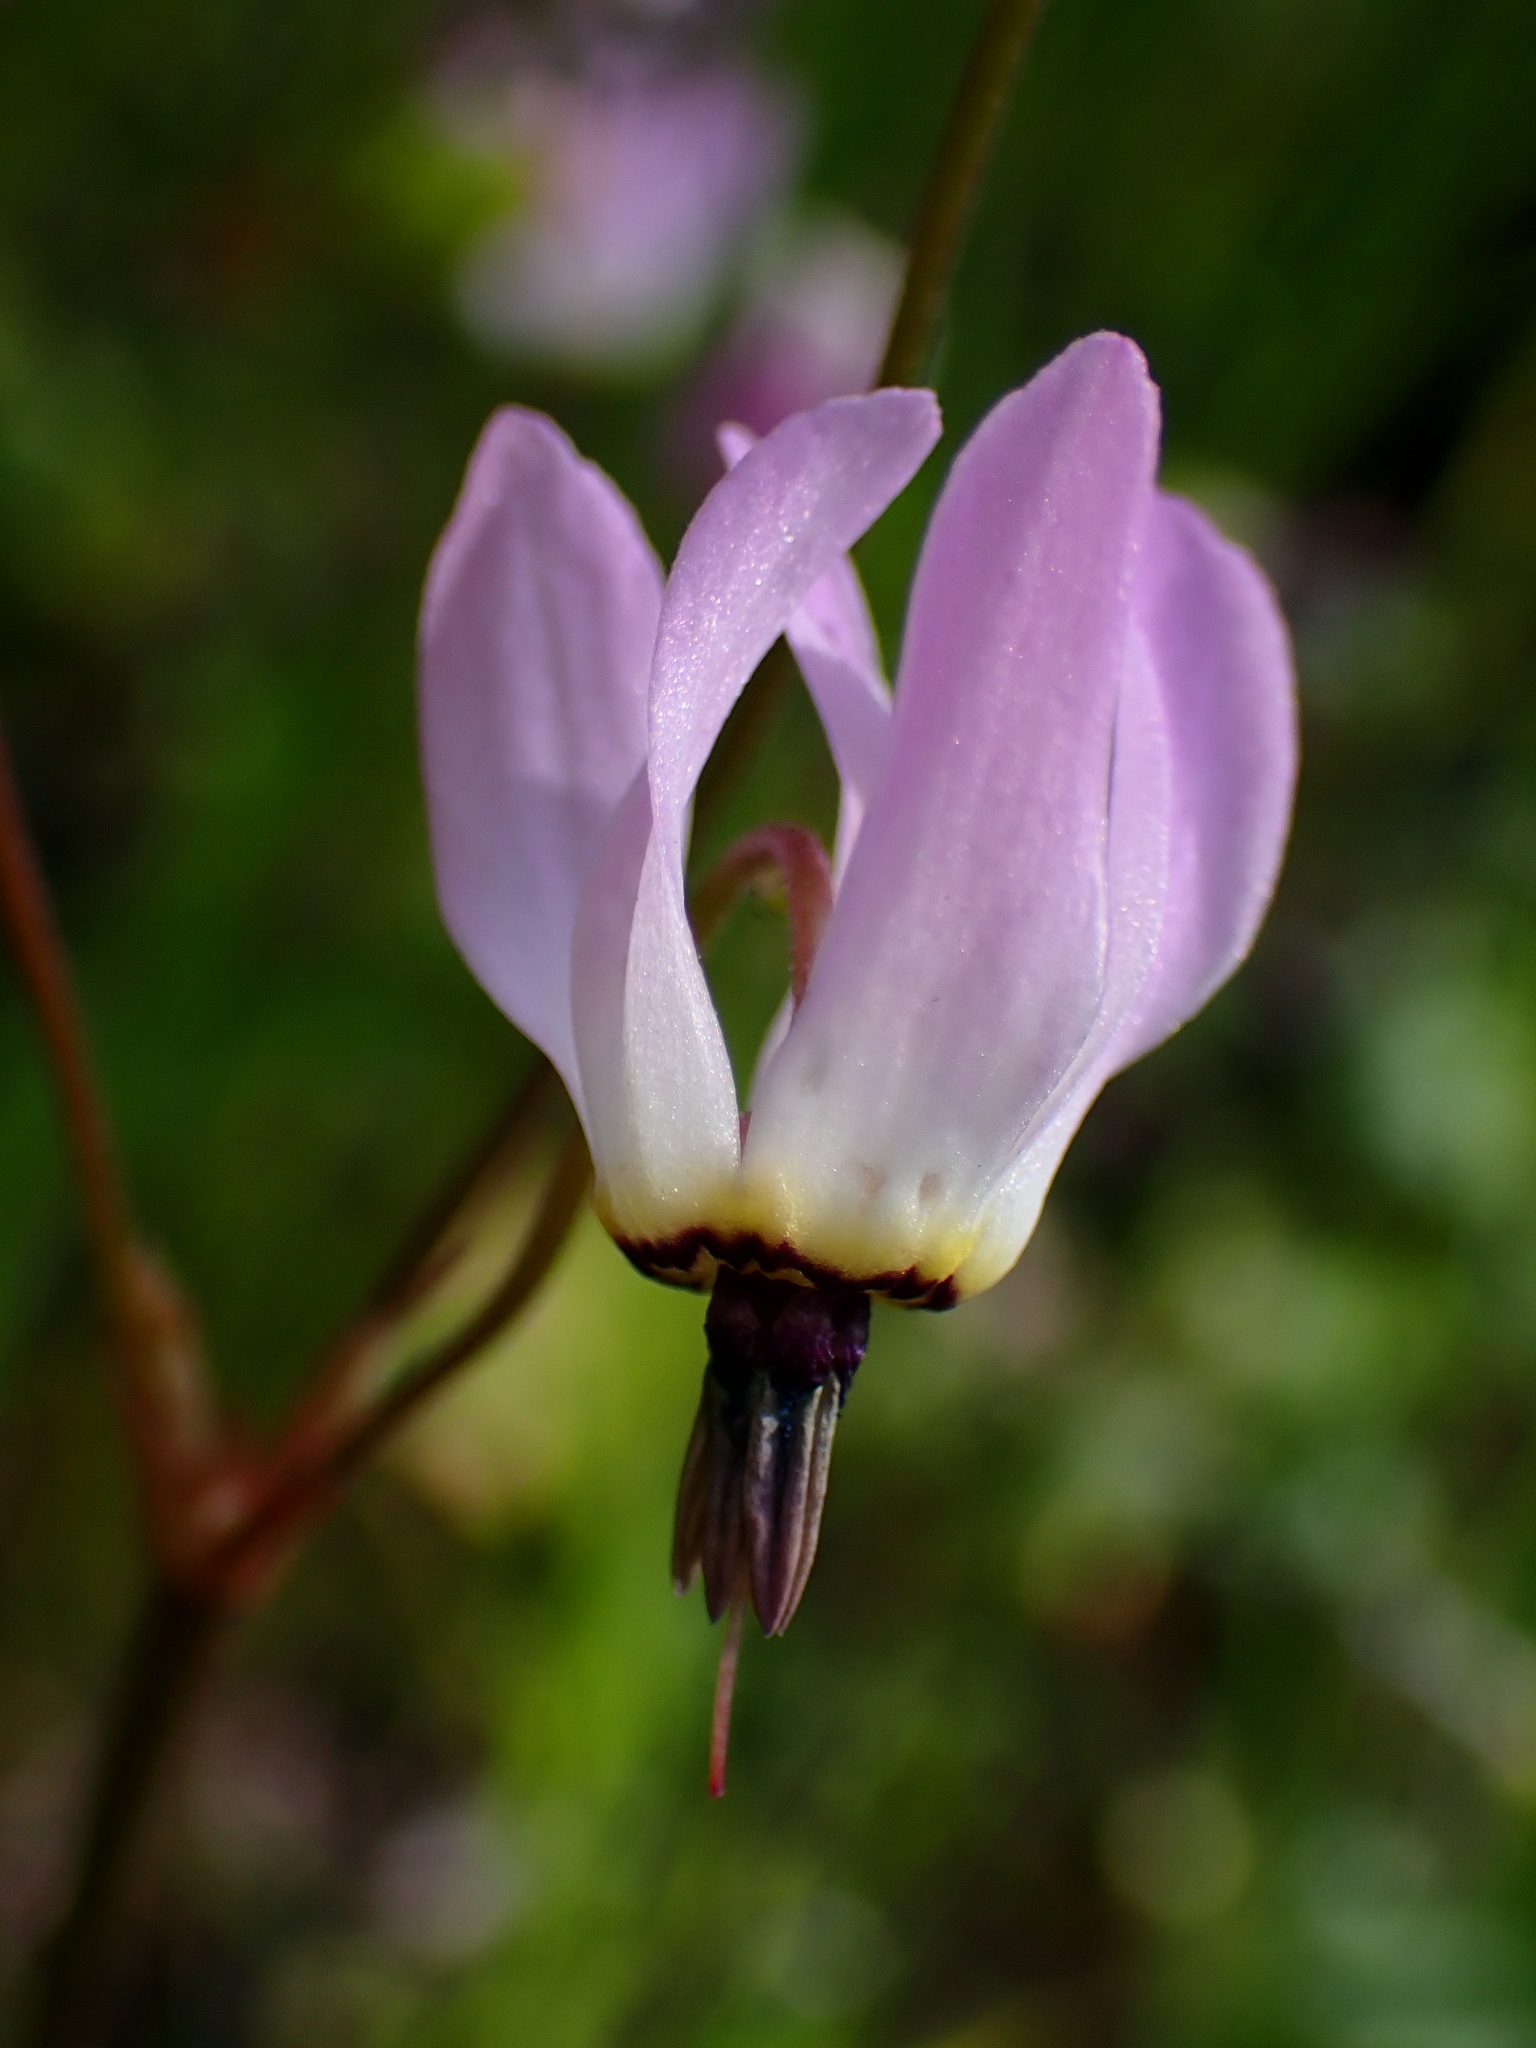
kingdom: Plantae
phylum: Tracheophyta
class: Magnoliopsida
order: Ericales
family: Primulaceae
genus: Dodecatheon
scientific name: Dodecatheon hendersonii
